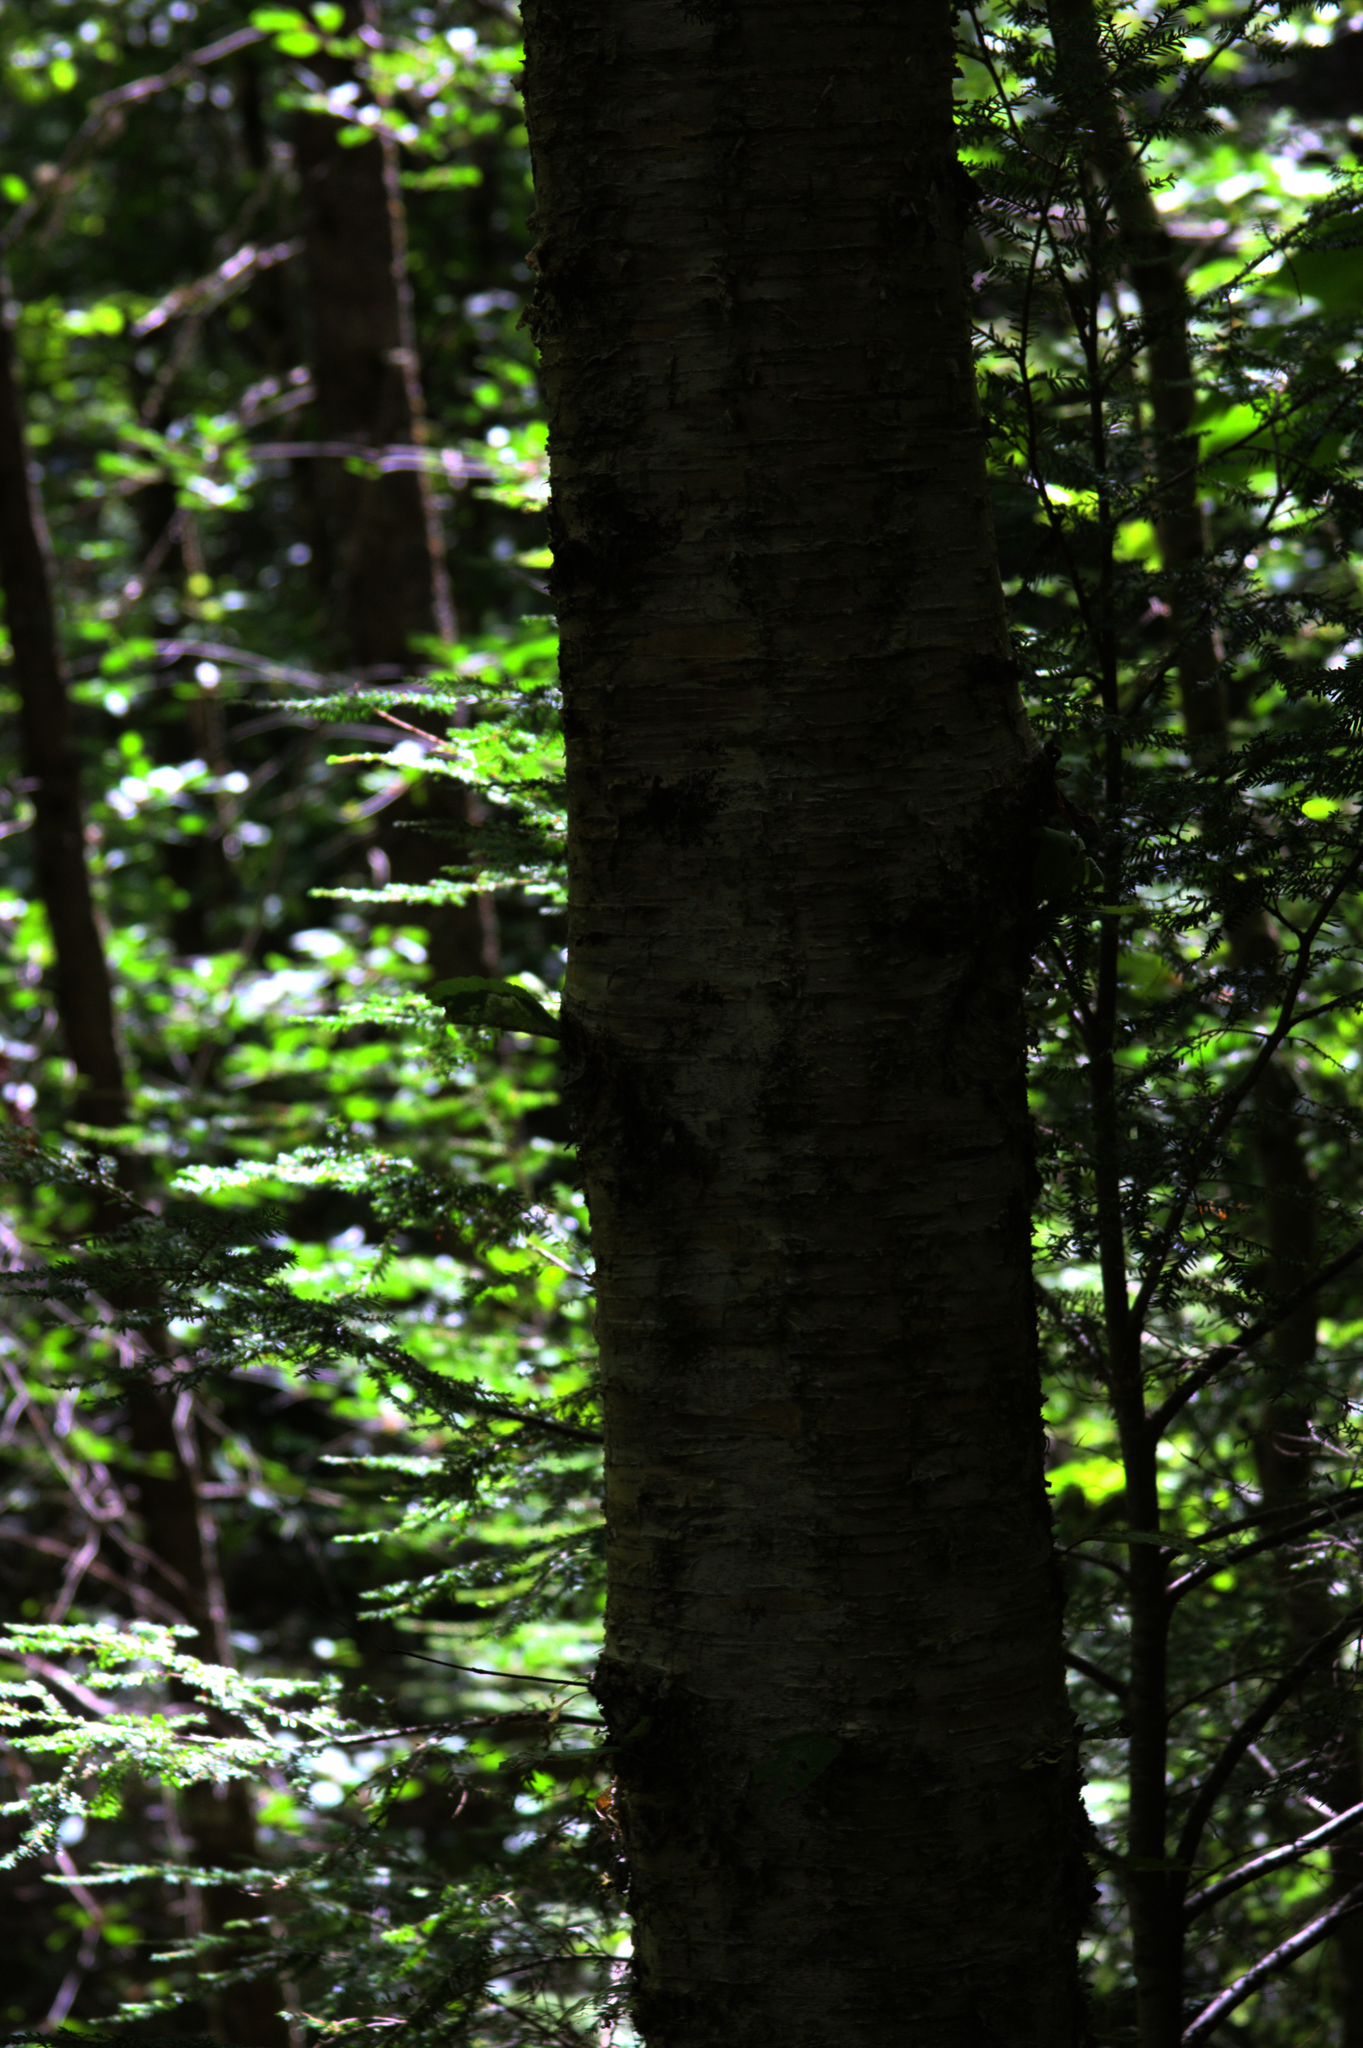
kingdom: Plantae
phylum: Tracheophyta
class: Magnoliopsida
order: Fagales
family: Betulaceae
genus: Betula
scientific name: Betula alleghaniensis
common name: Yellow birch
